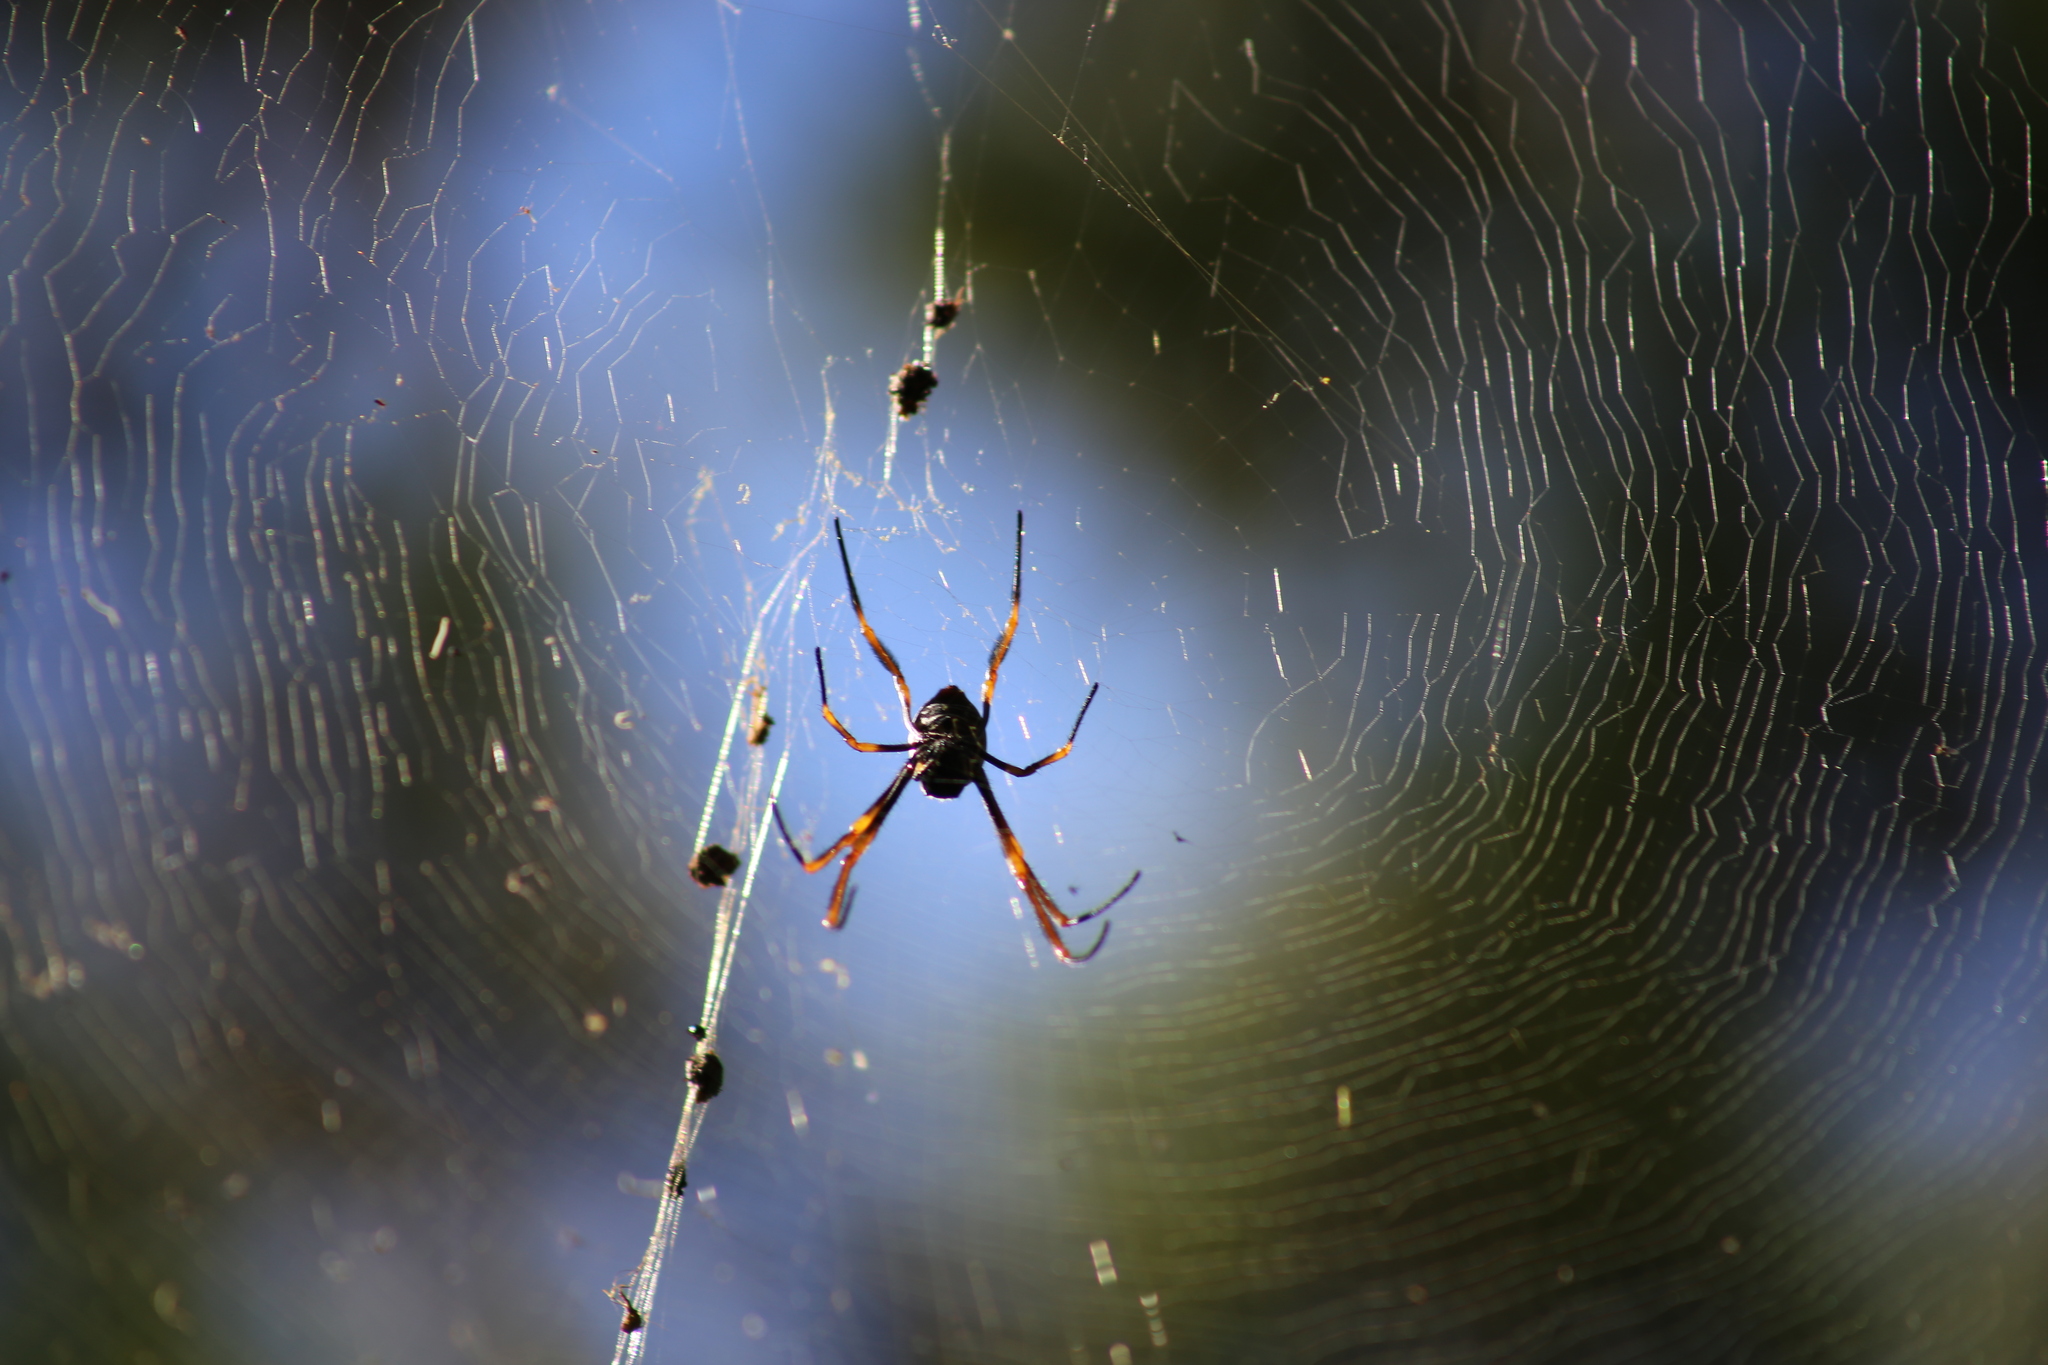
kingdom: Animalia
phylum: Arthropoda
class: Arachnida
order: Araneae
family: Araneidae
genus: Trichonephila
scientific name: Trichonephila plumipes
